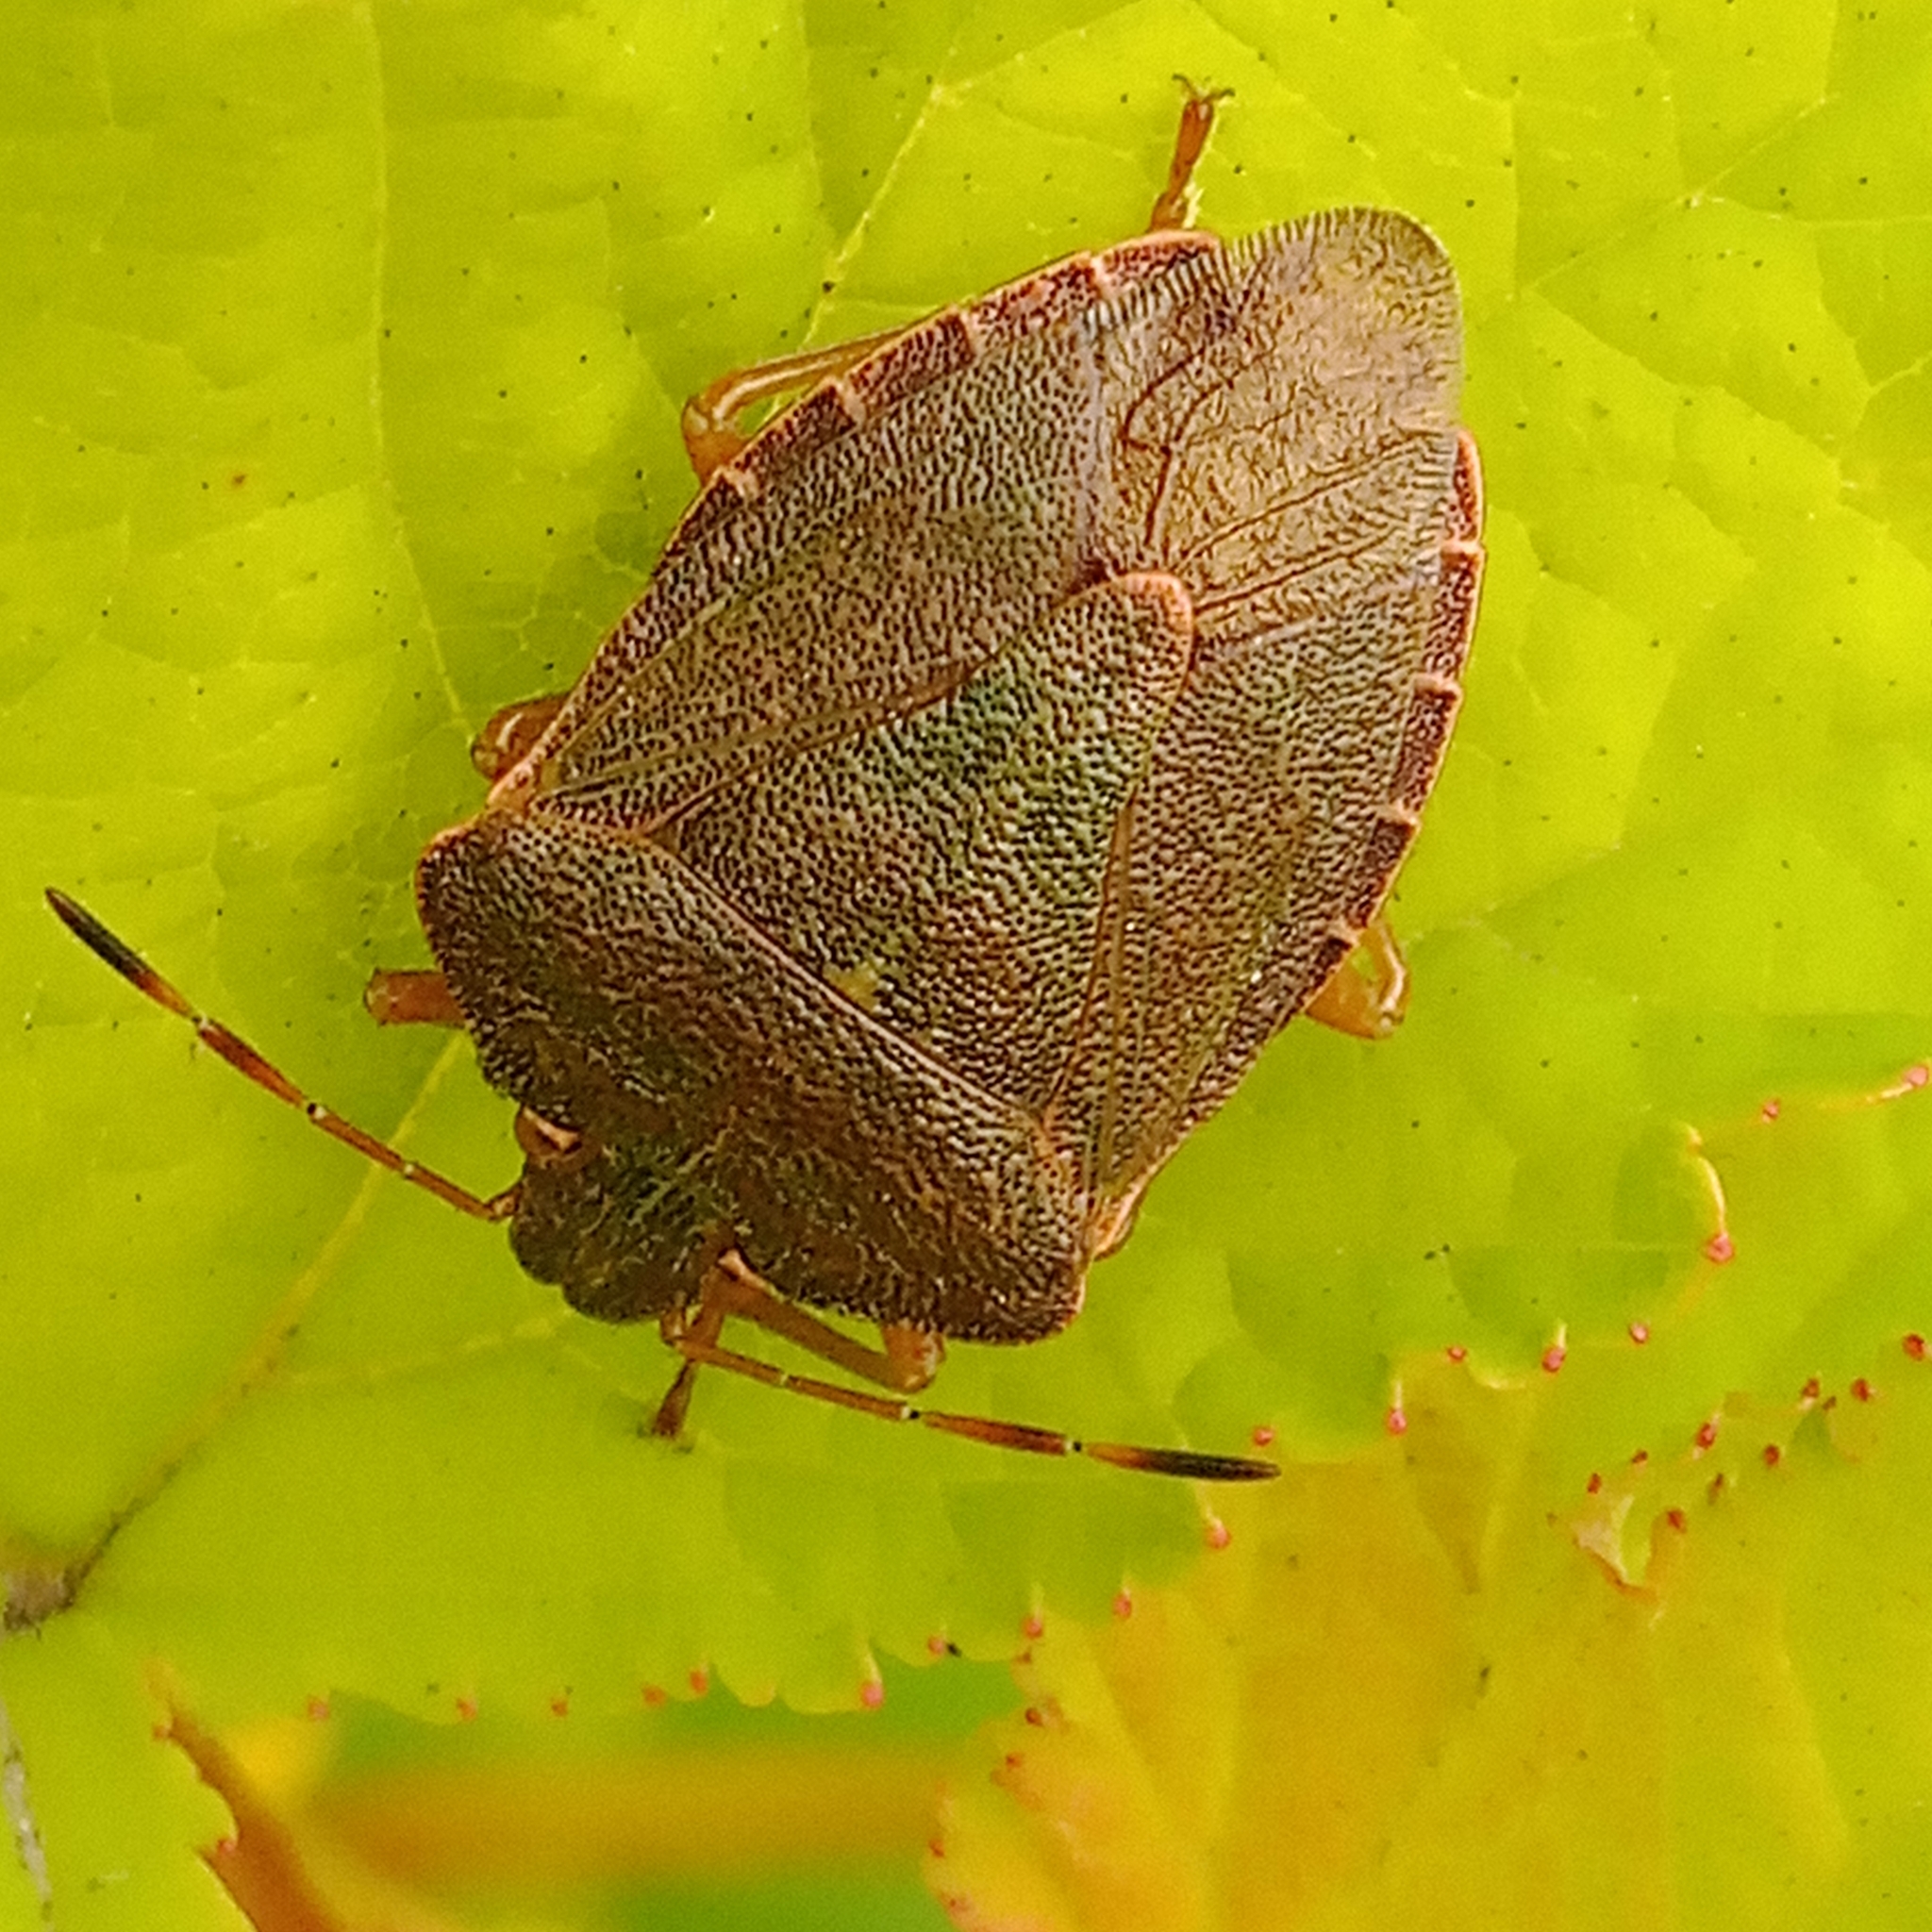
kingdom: Animalia
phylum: Arthropoda
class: Insecta
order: Hemiptera
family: Pentatomidae
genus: Palomena
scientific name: Palomena prasina
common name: Green shieldbug
